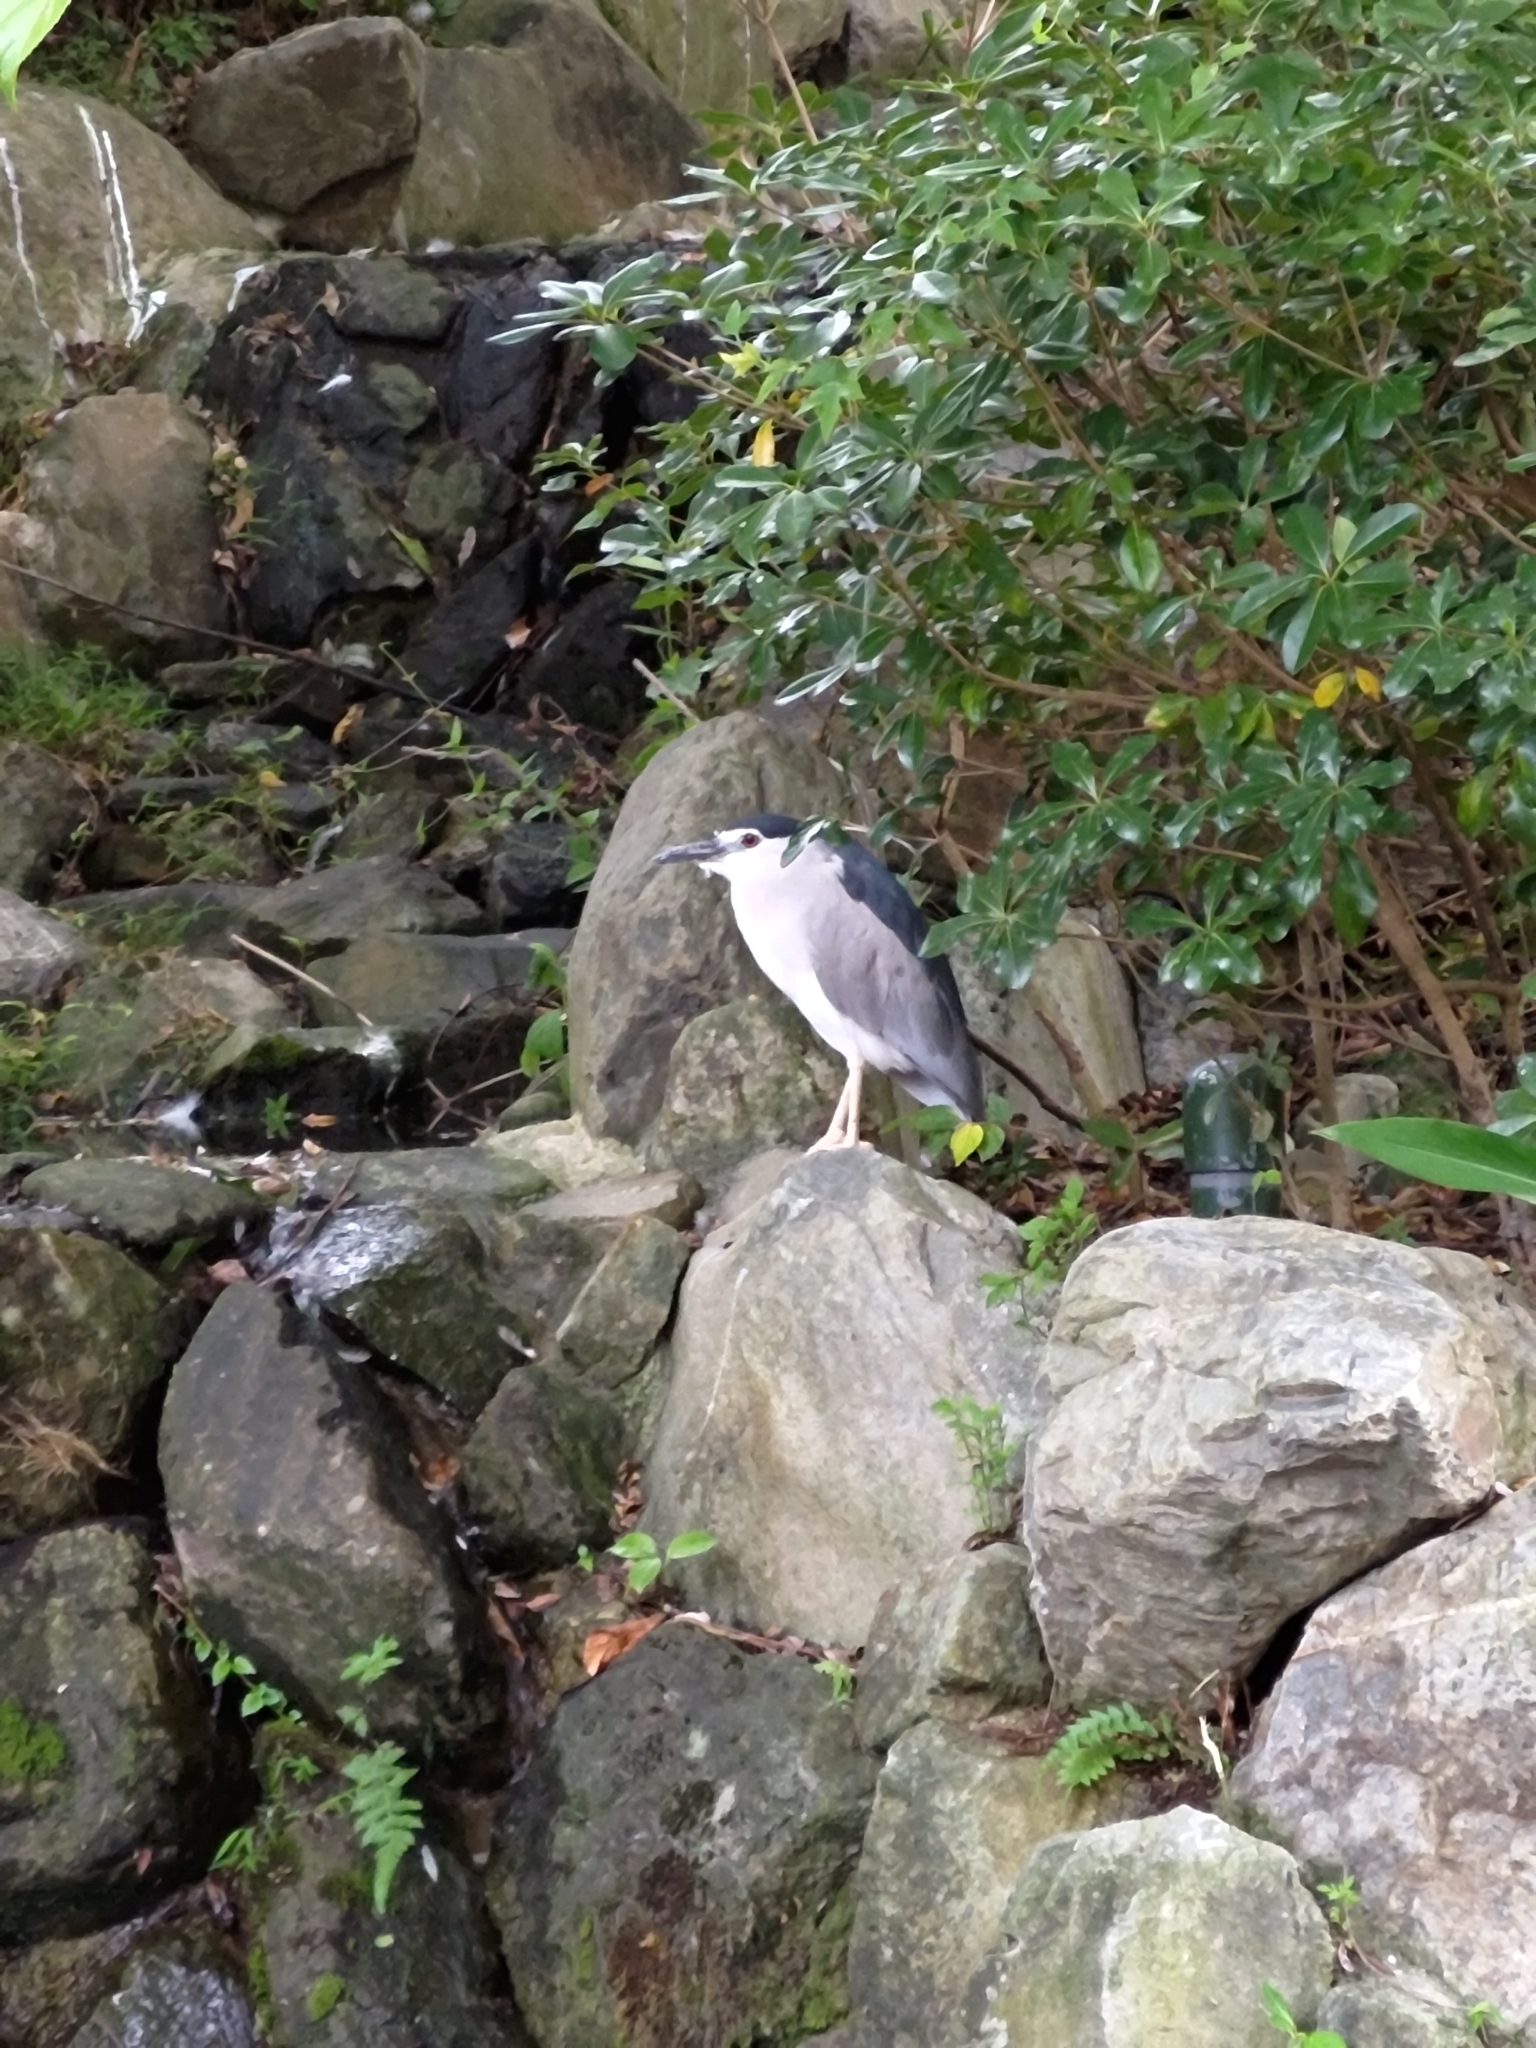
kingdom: Animalia
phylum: Chordata
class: Aves
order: Pelecaniformes
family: Ardeidae
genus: Nycticorax
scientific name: Nycticorax nycticorax
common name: Black-crowned night heron
